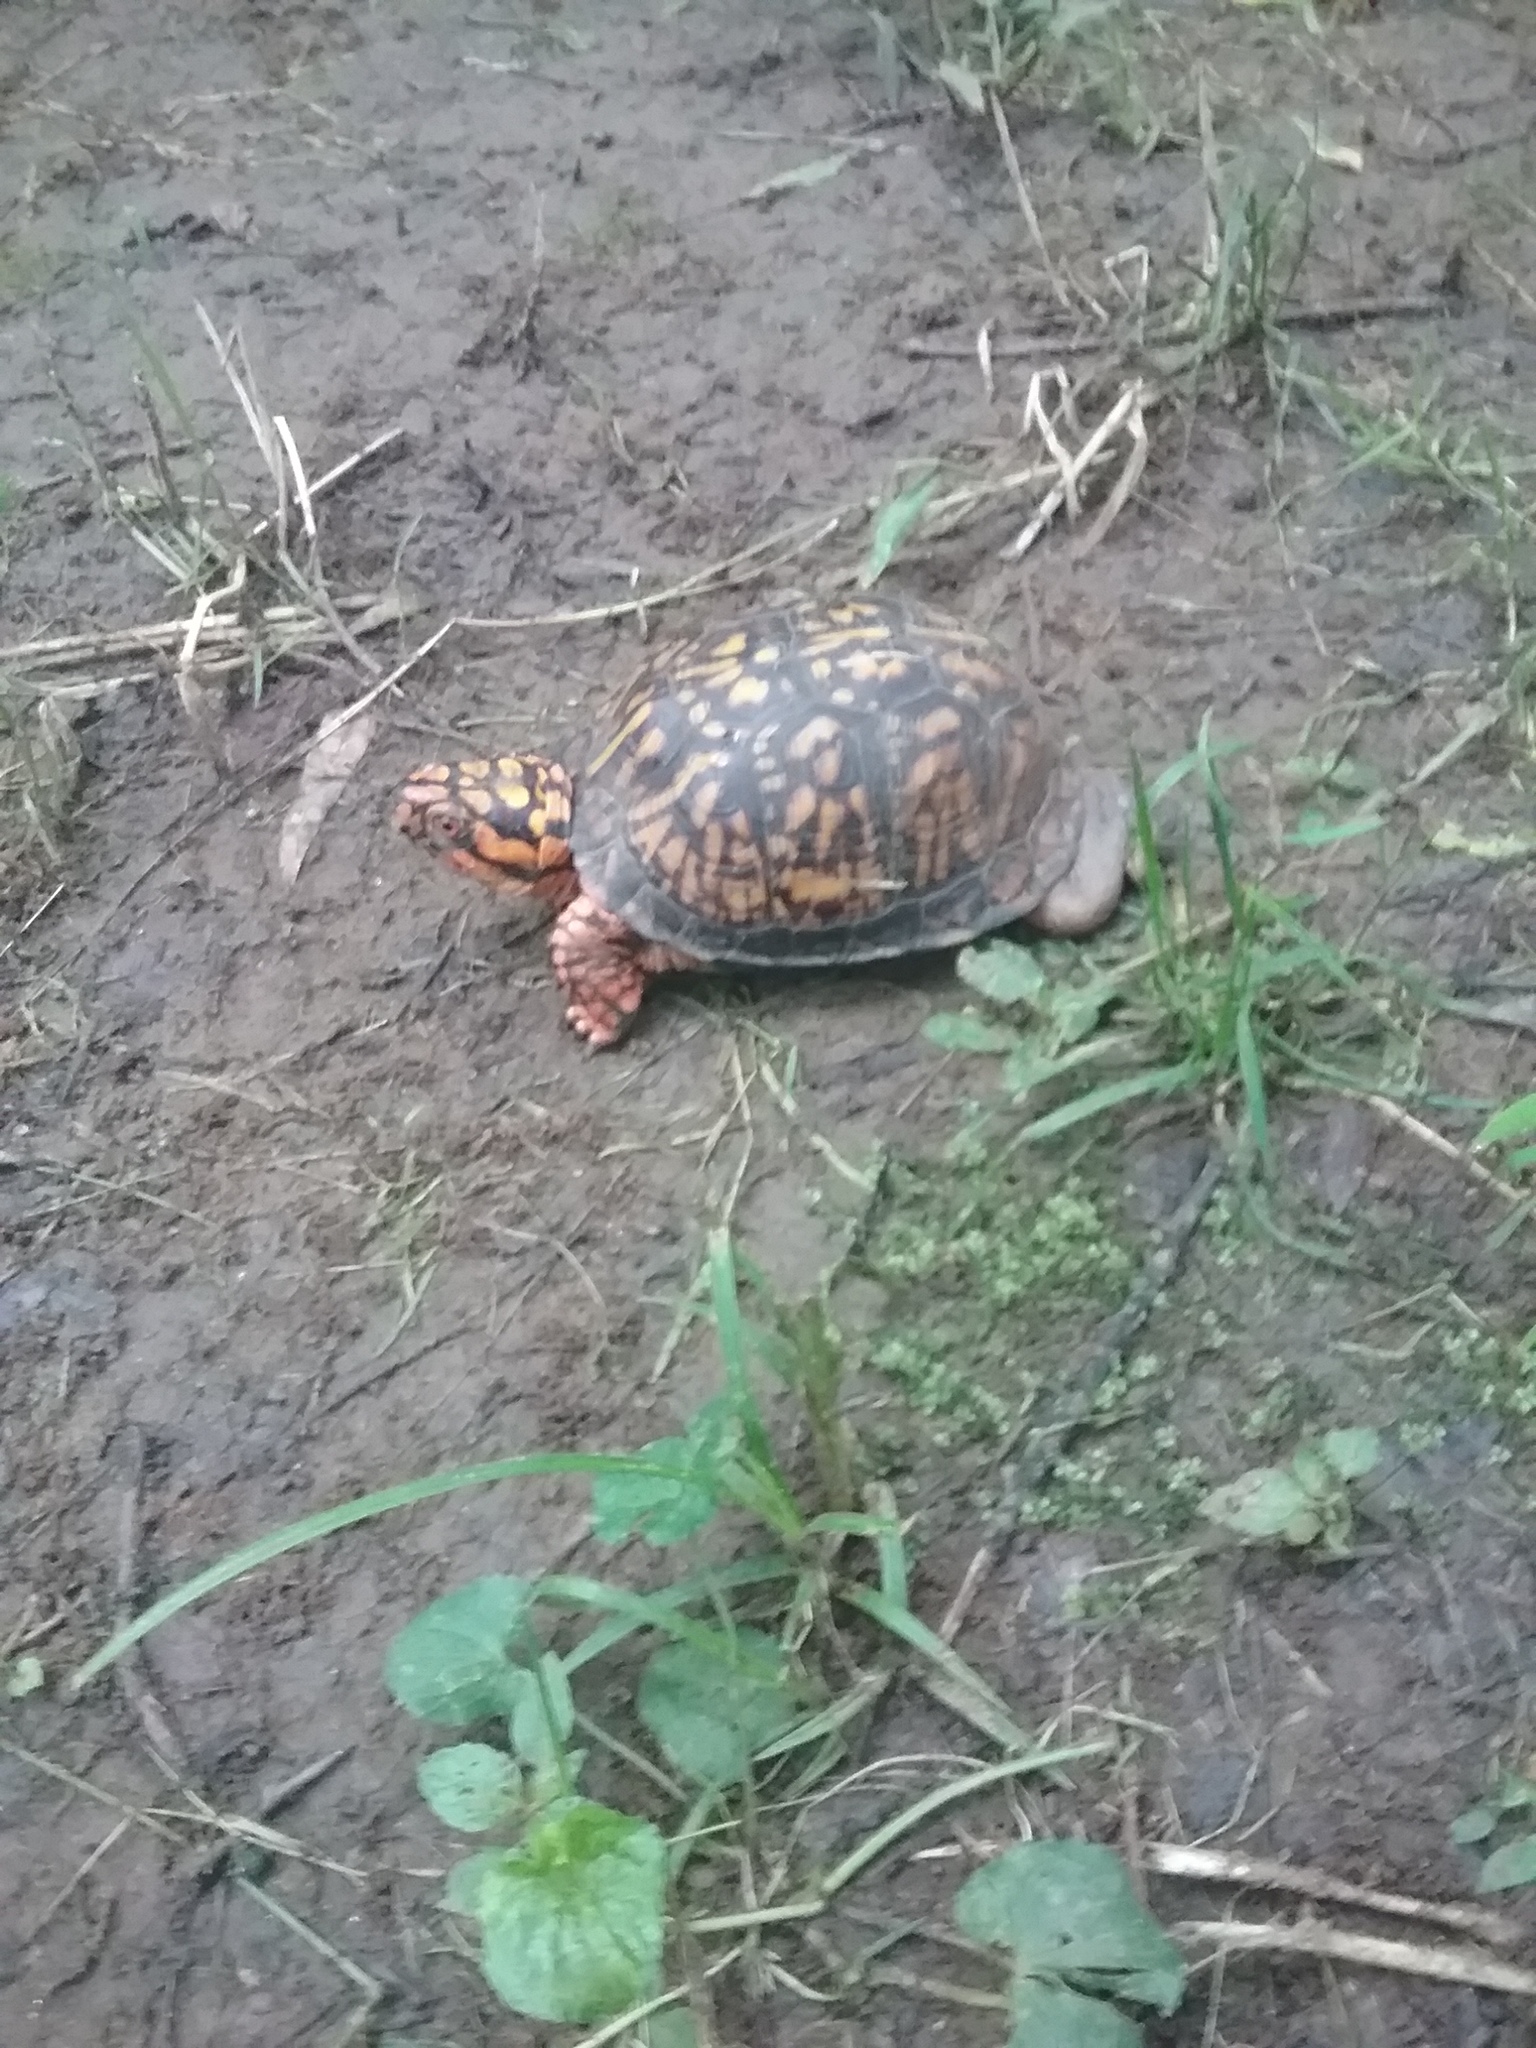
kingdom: Animalia
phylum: Chordata
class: Testudines
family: Emydidae
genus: Terrapene
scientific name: Terrapene carolina
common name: Common box turtle
